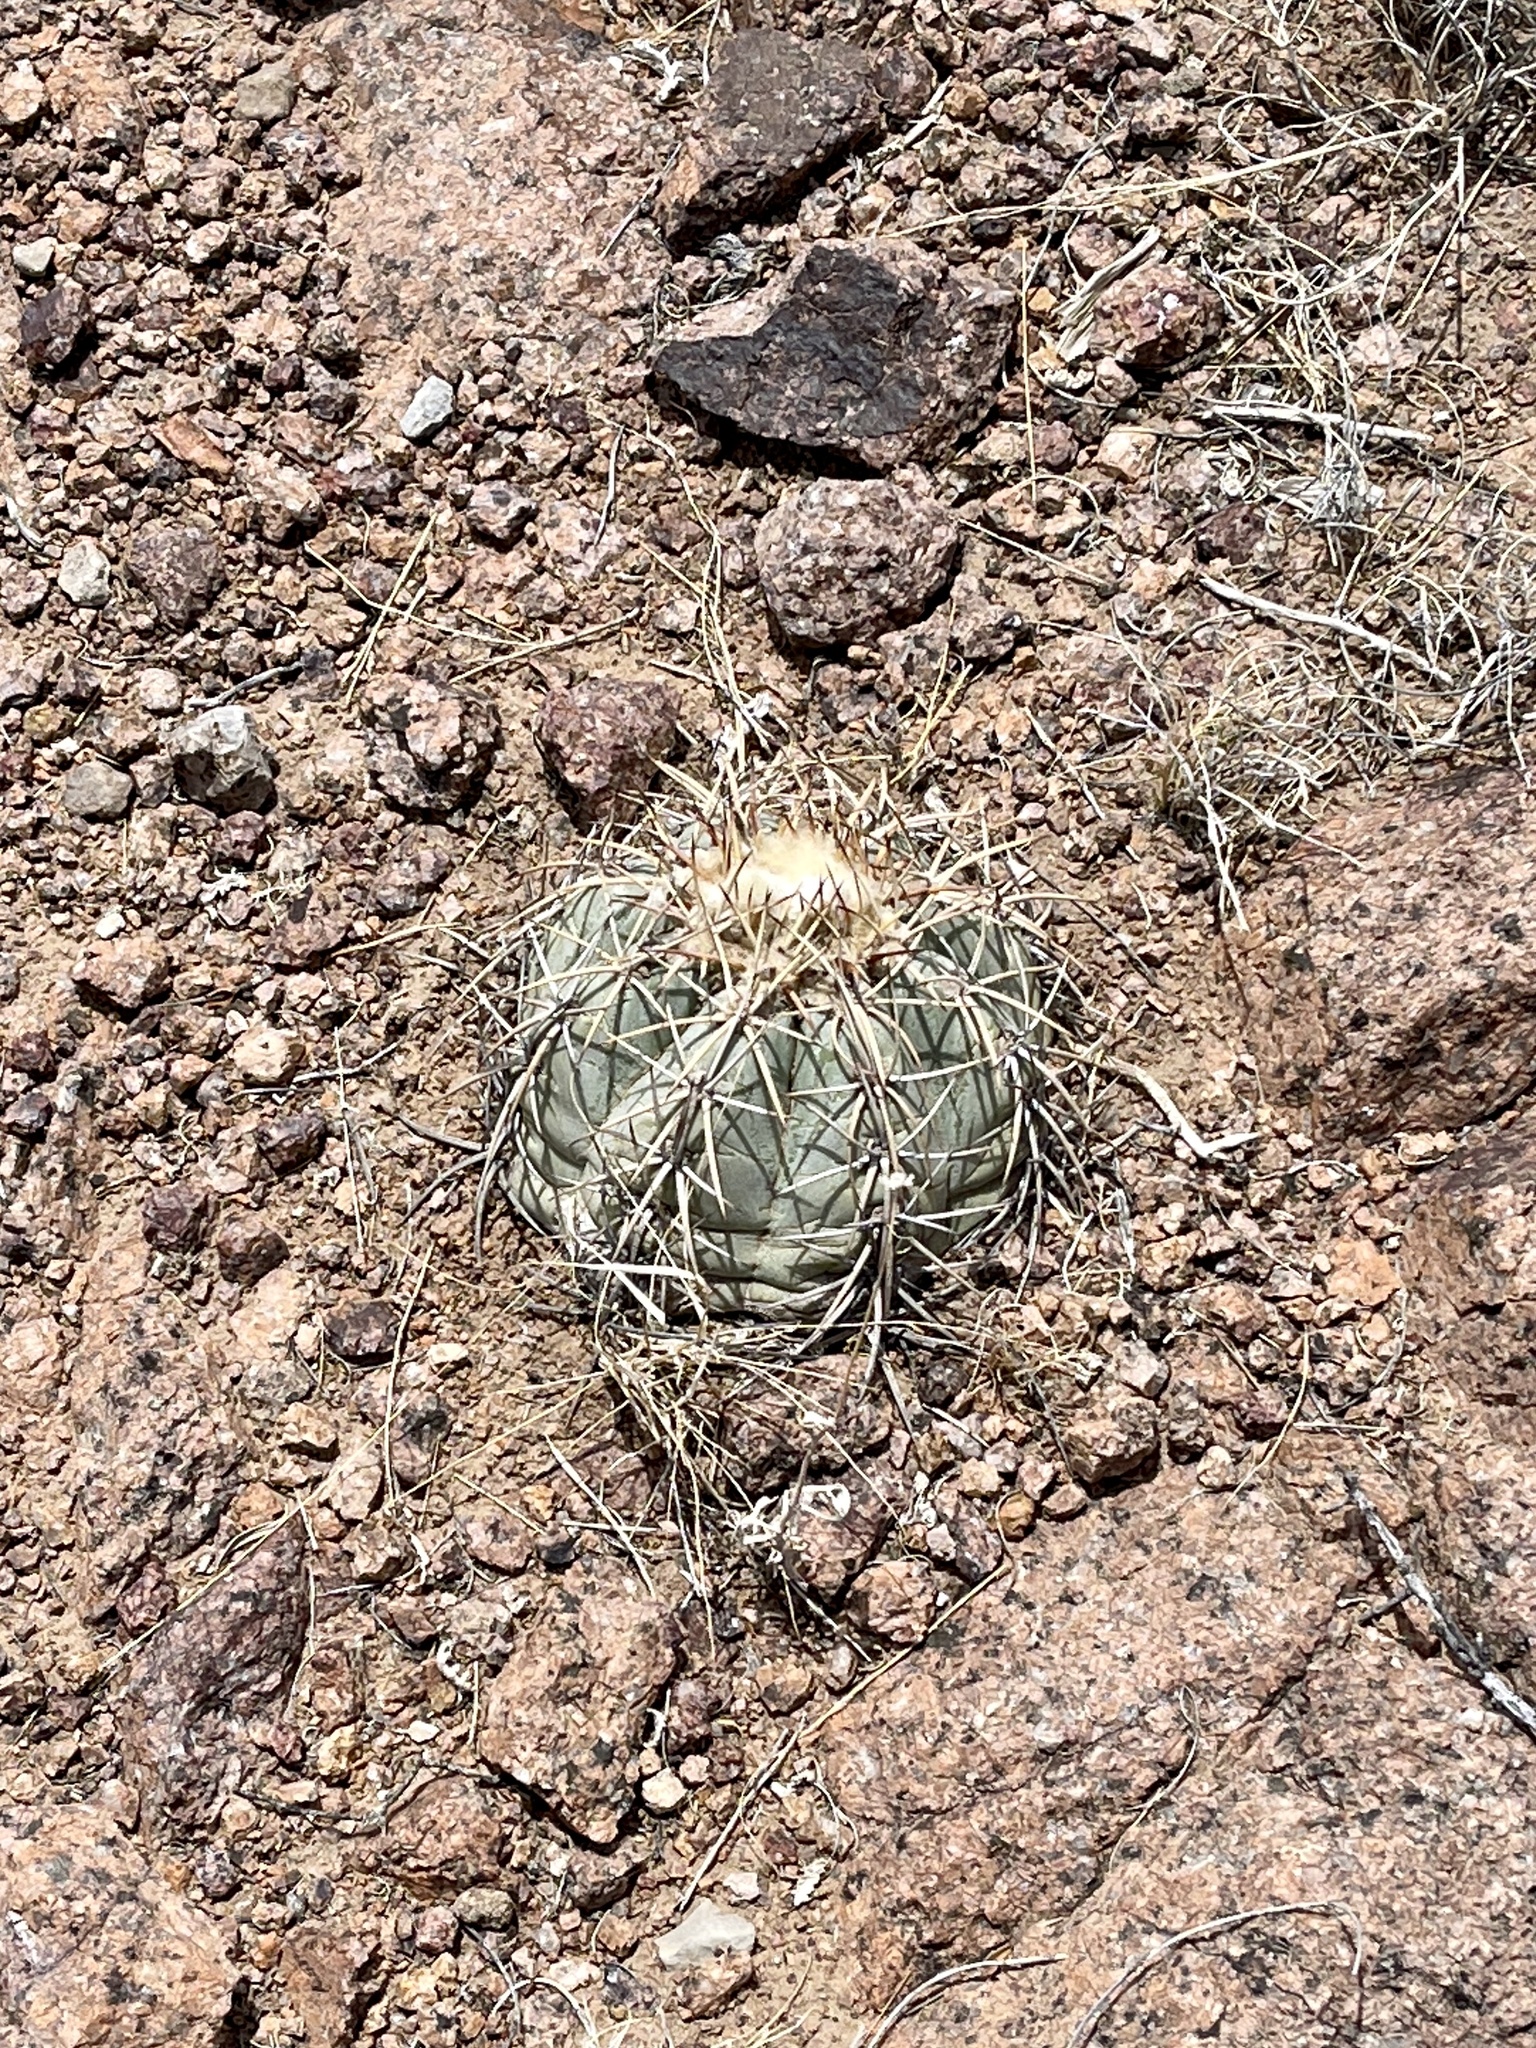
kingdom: Plantae
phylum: Tracheophyta
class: Magnoliopsida
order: Caryophyllales
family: Cactaceae
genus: Echinocactus
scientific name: Echinocactus horizonthalonius
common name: Devilshead
